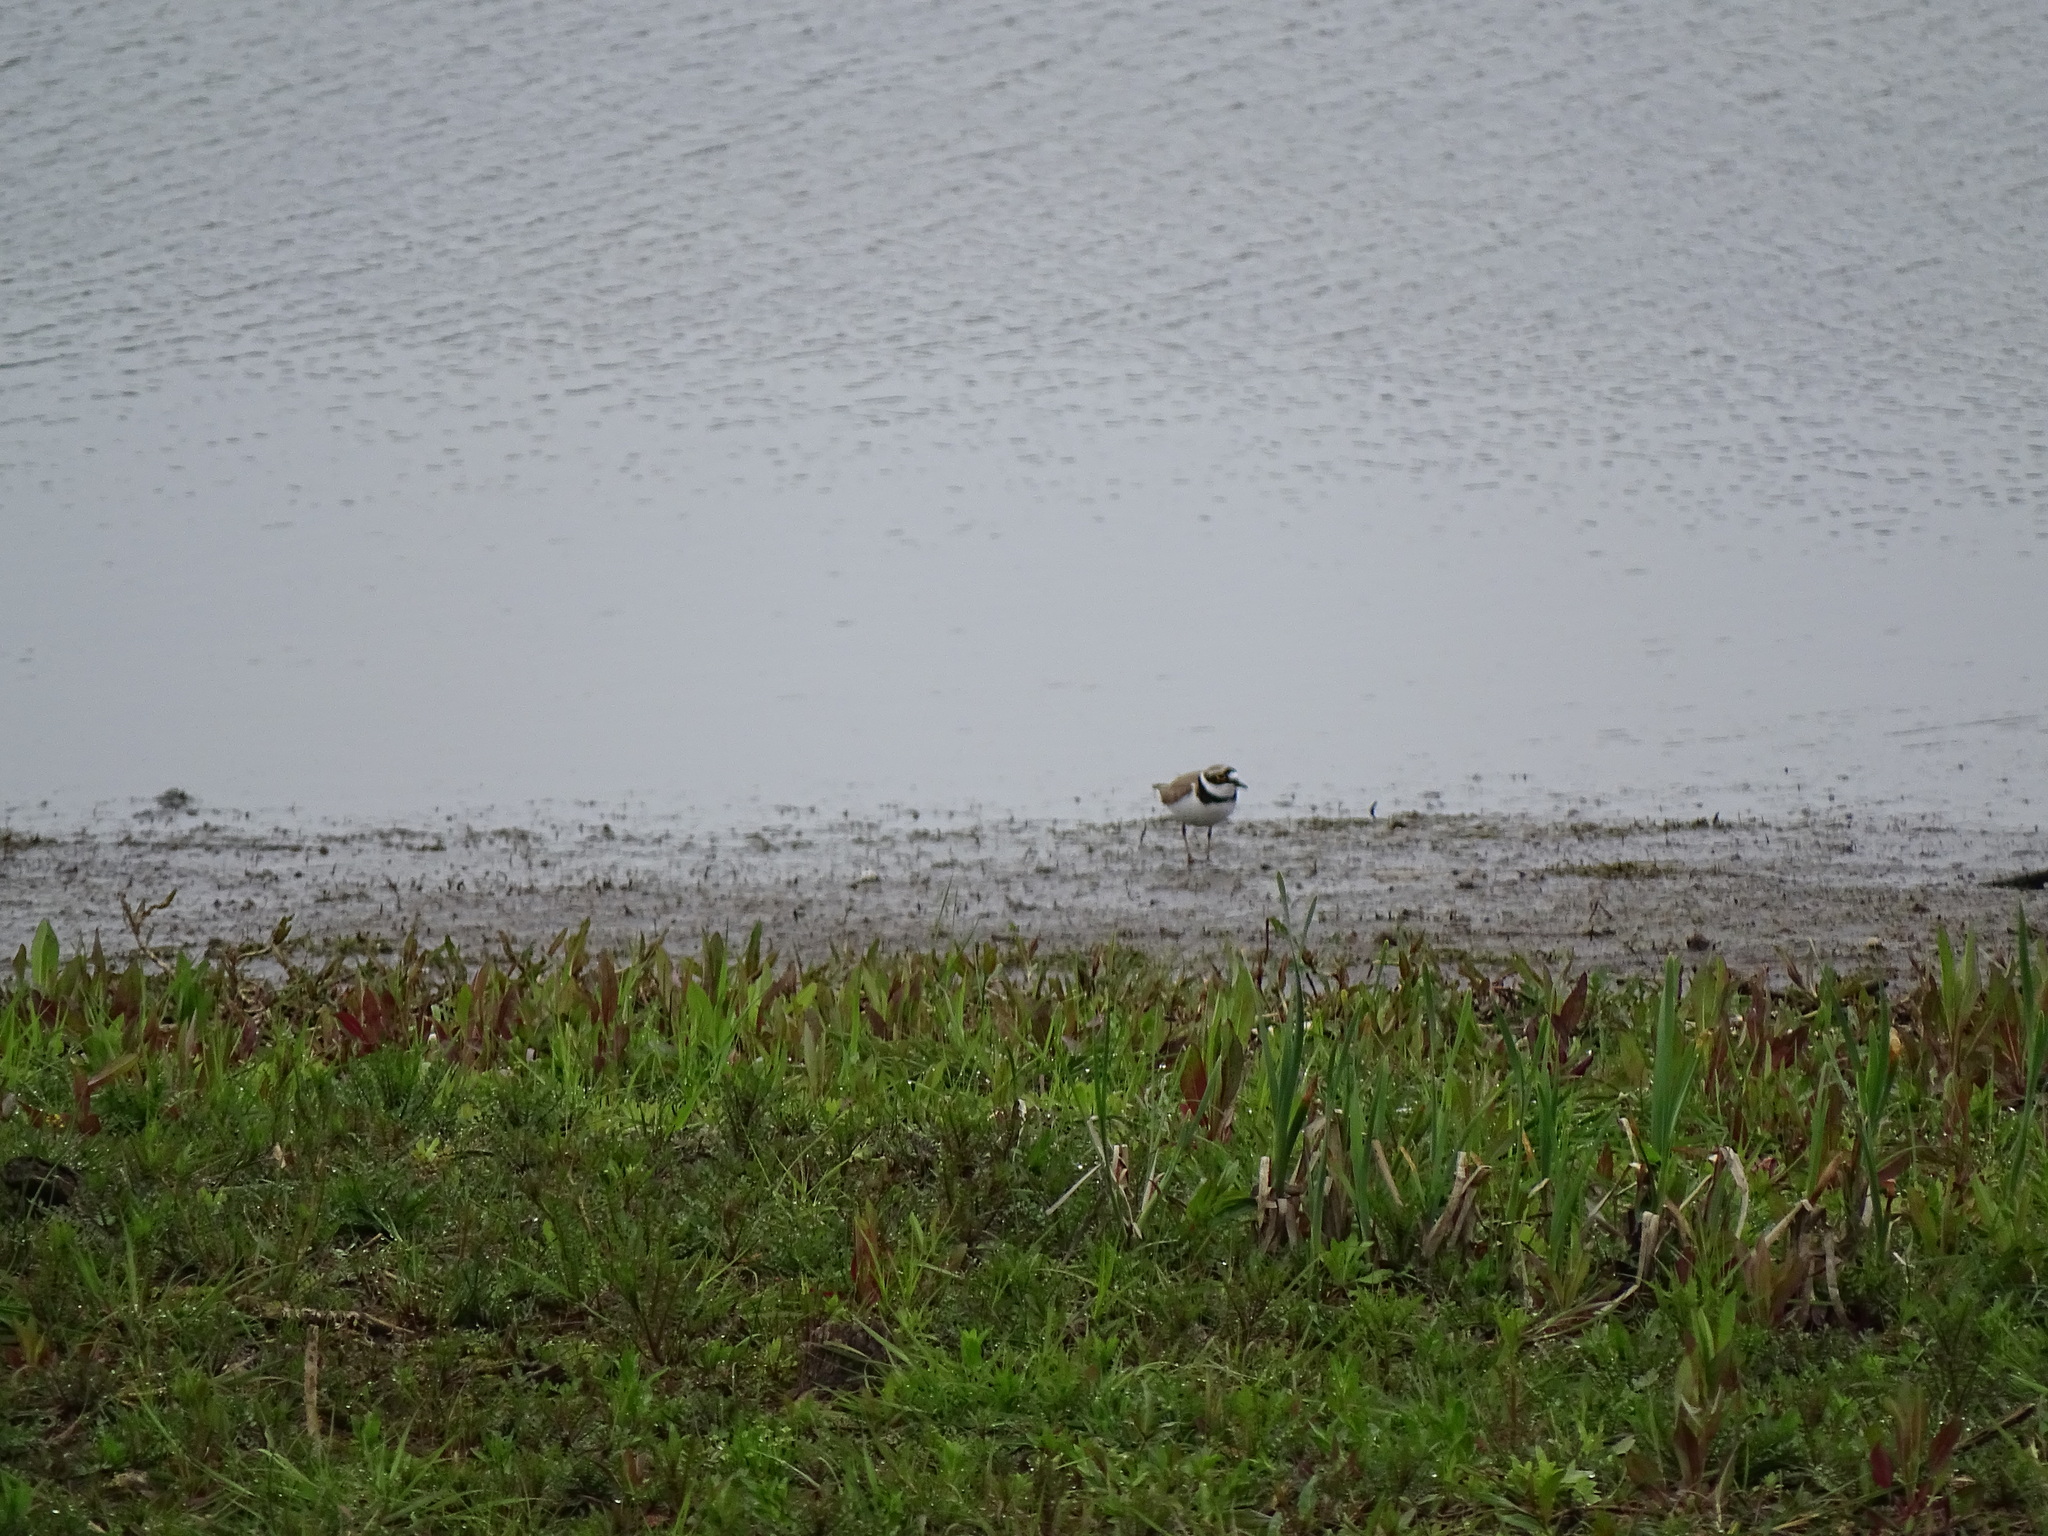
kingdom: Animalia
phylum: Chordata
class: Aves
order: Charadriiformes
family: Charadriidae
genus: Charadrius
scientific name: Charadrius dubius
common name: Little ringed plover
